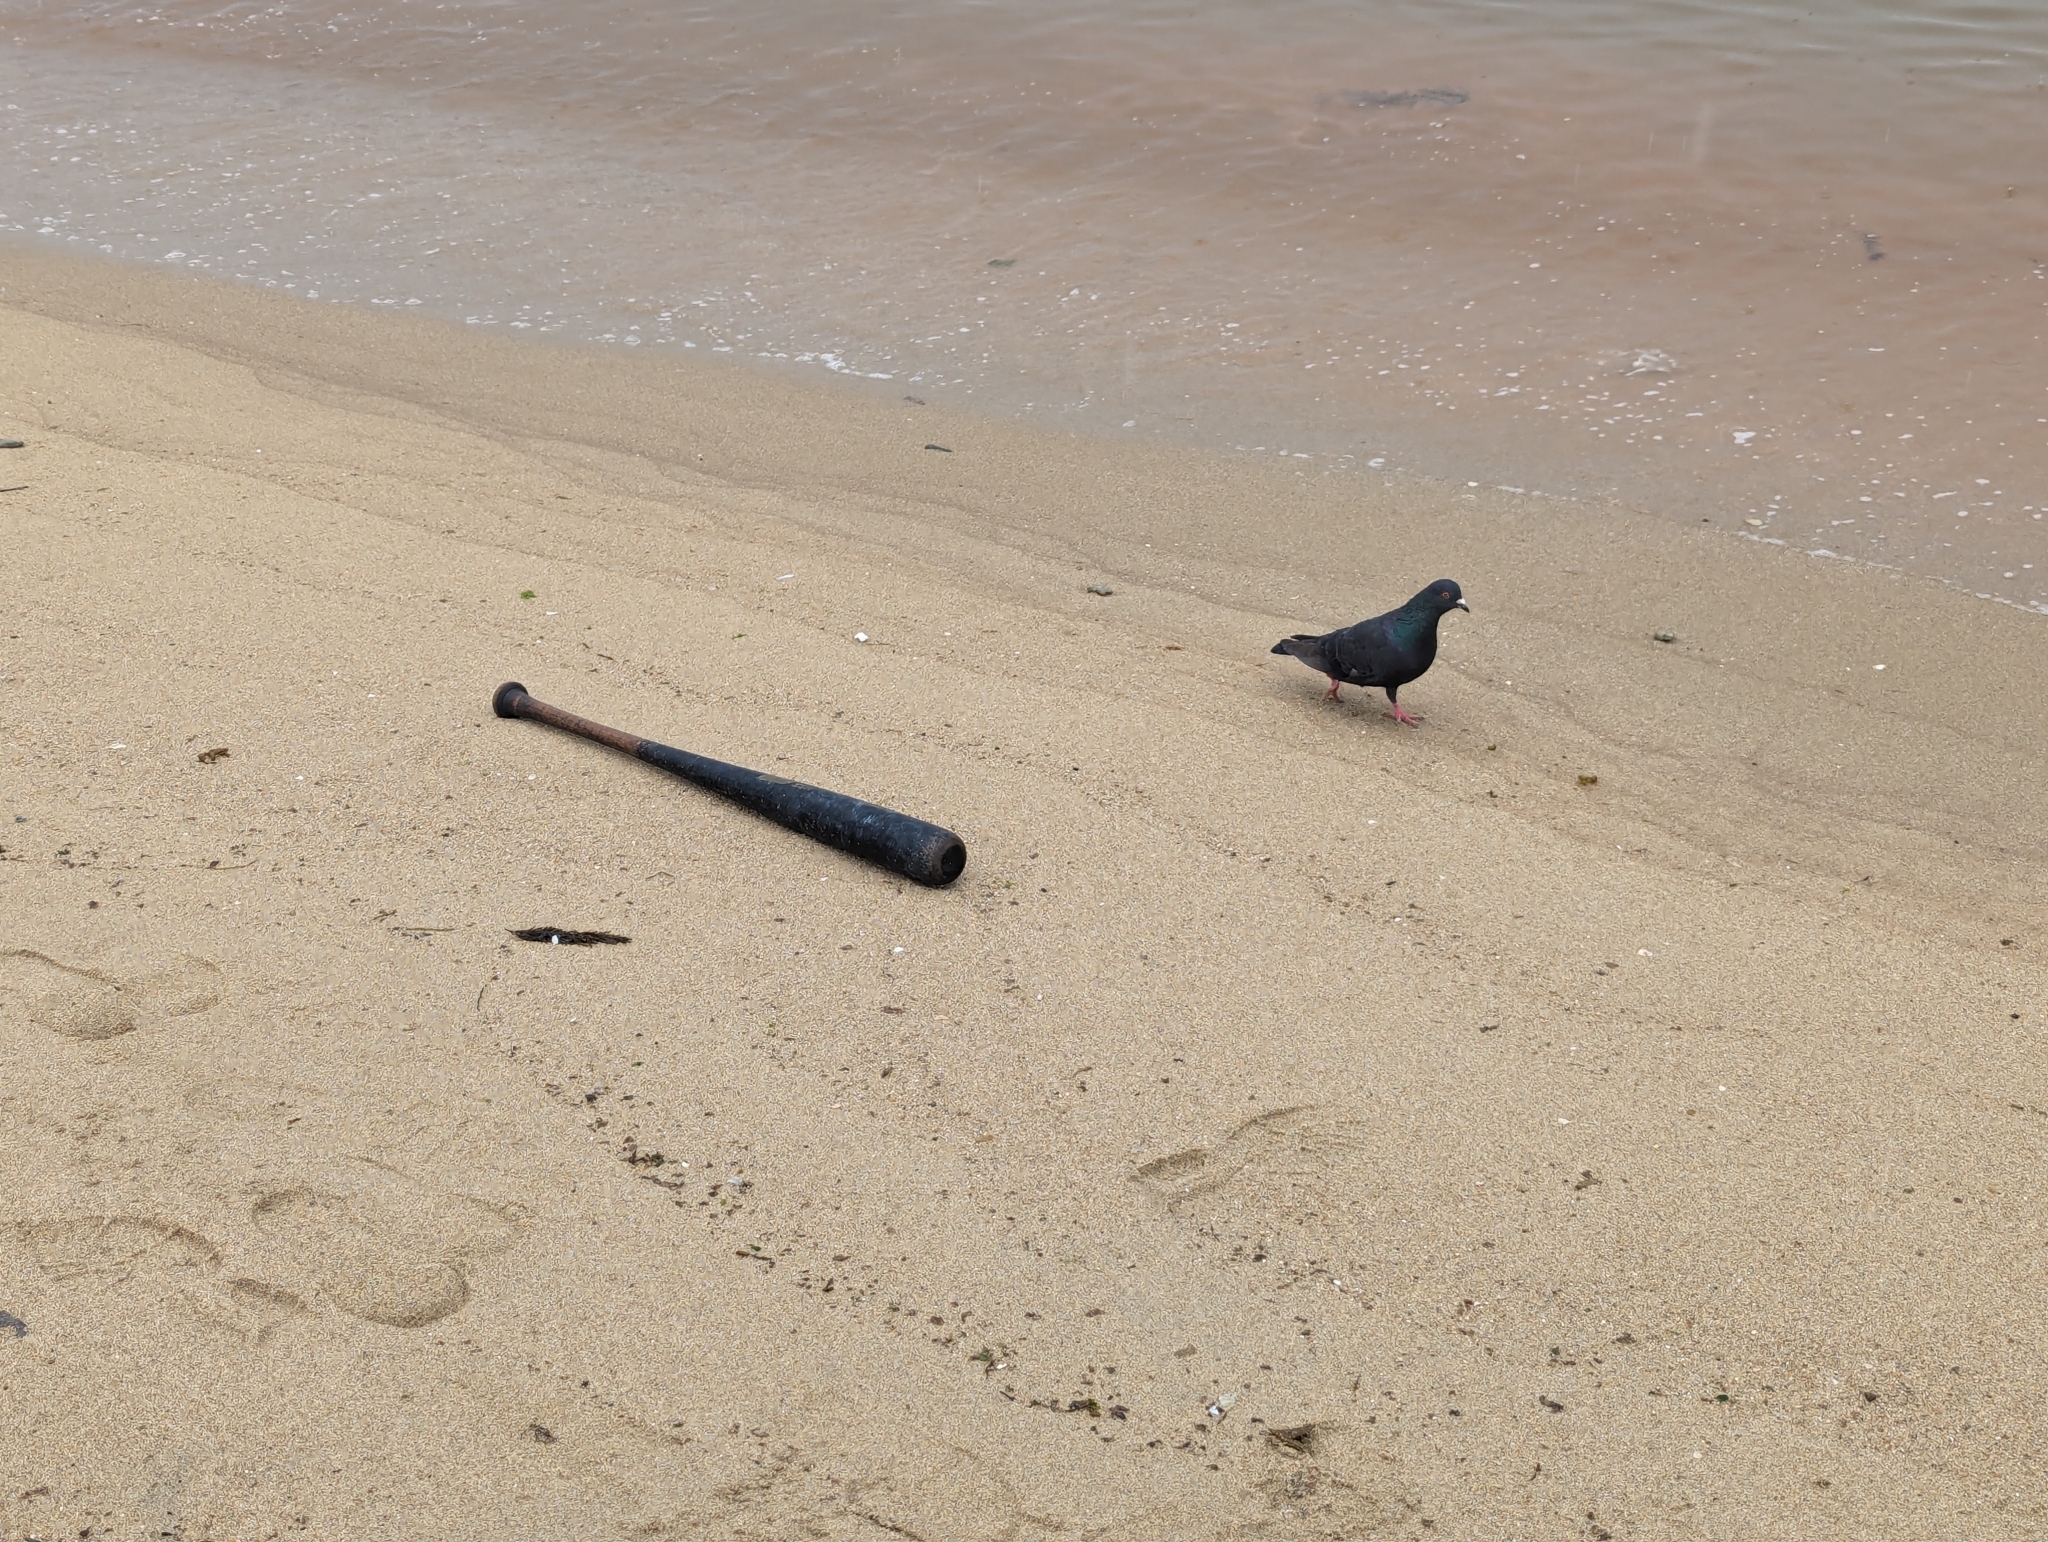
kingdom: Animalia
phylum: Chordata
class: Aves
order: Columbiformes
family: Columbidae
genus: Columba
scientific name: Columba livia
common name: Rock pigeon
